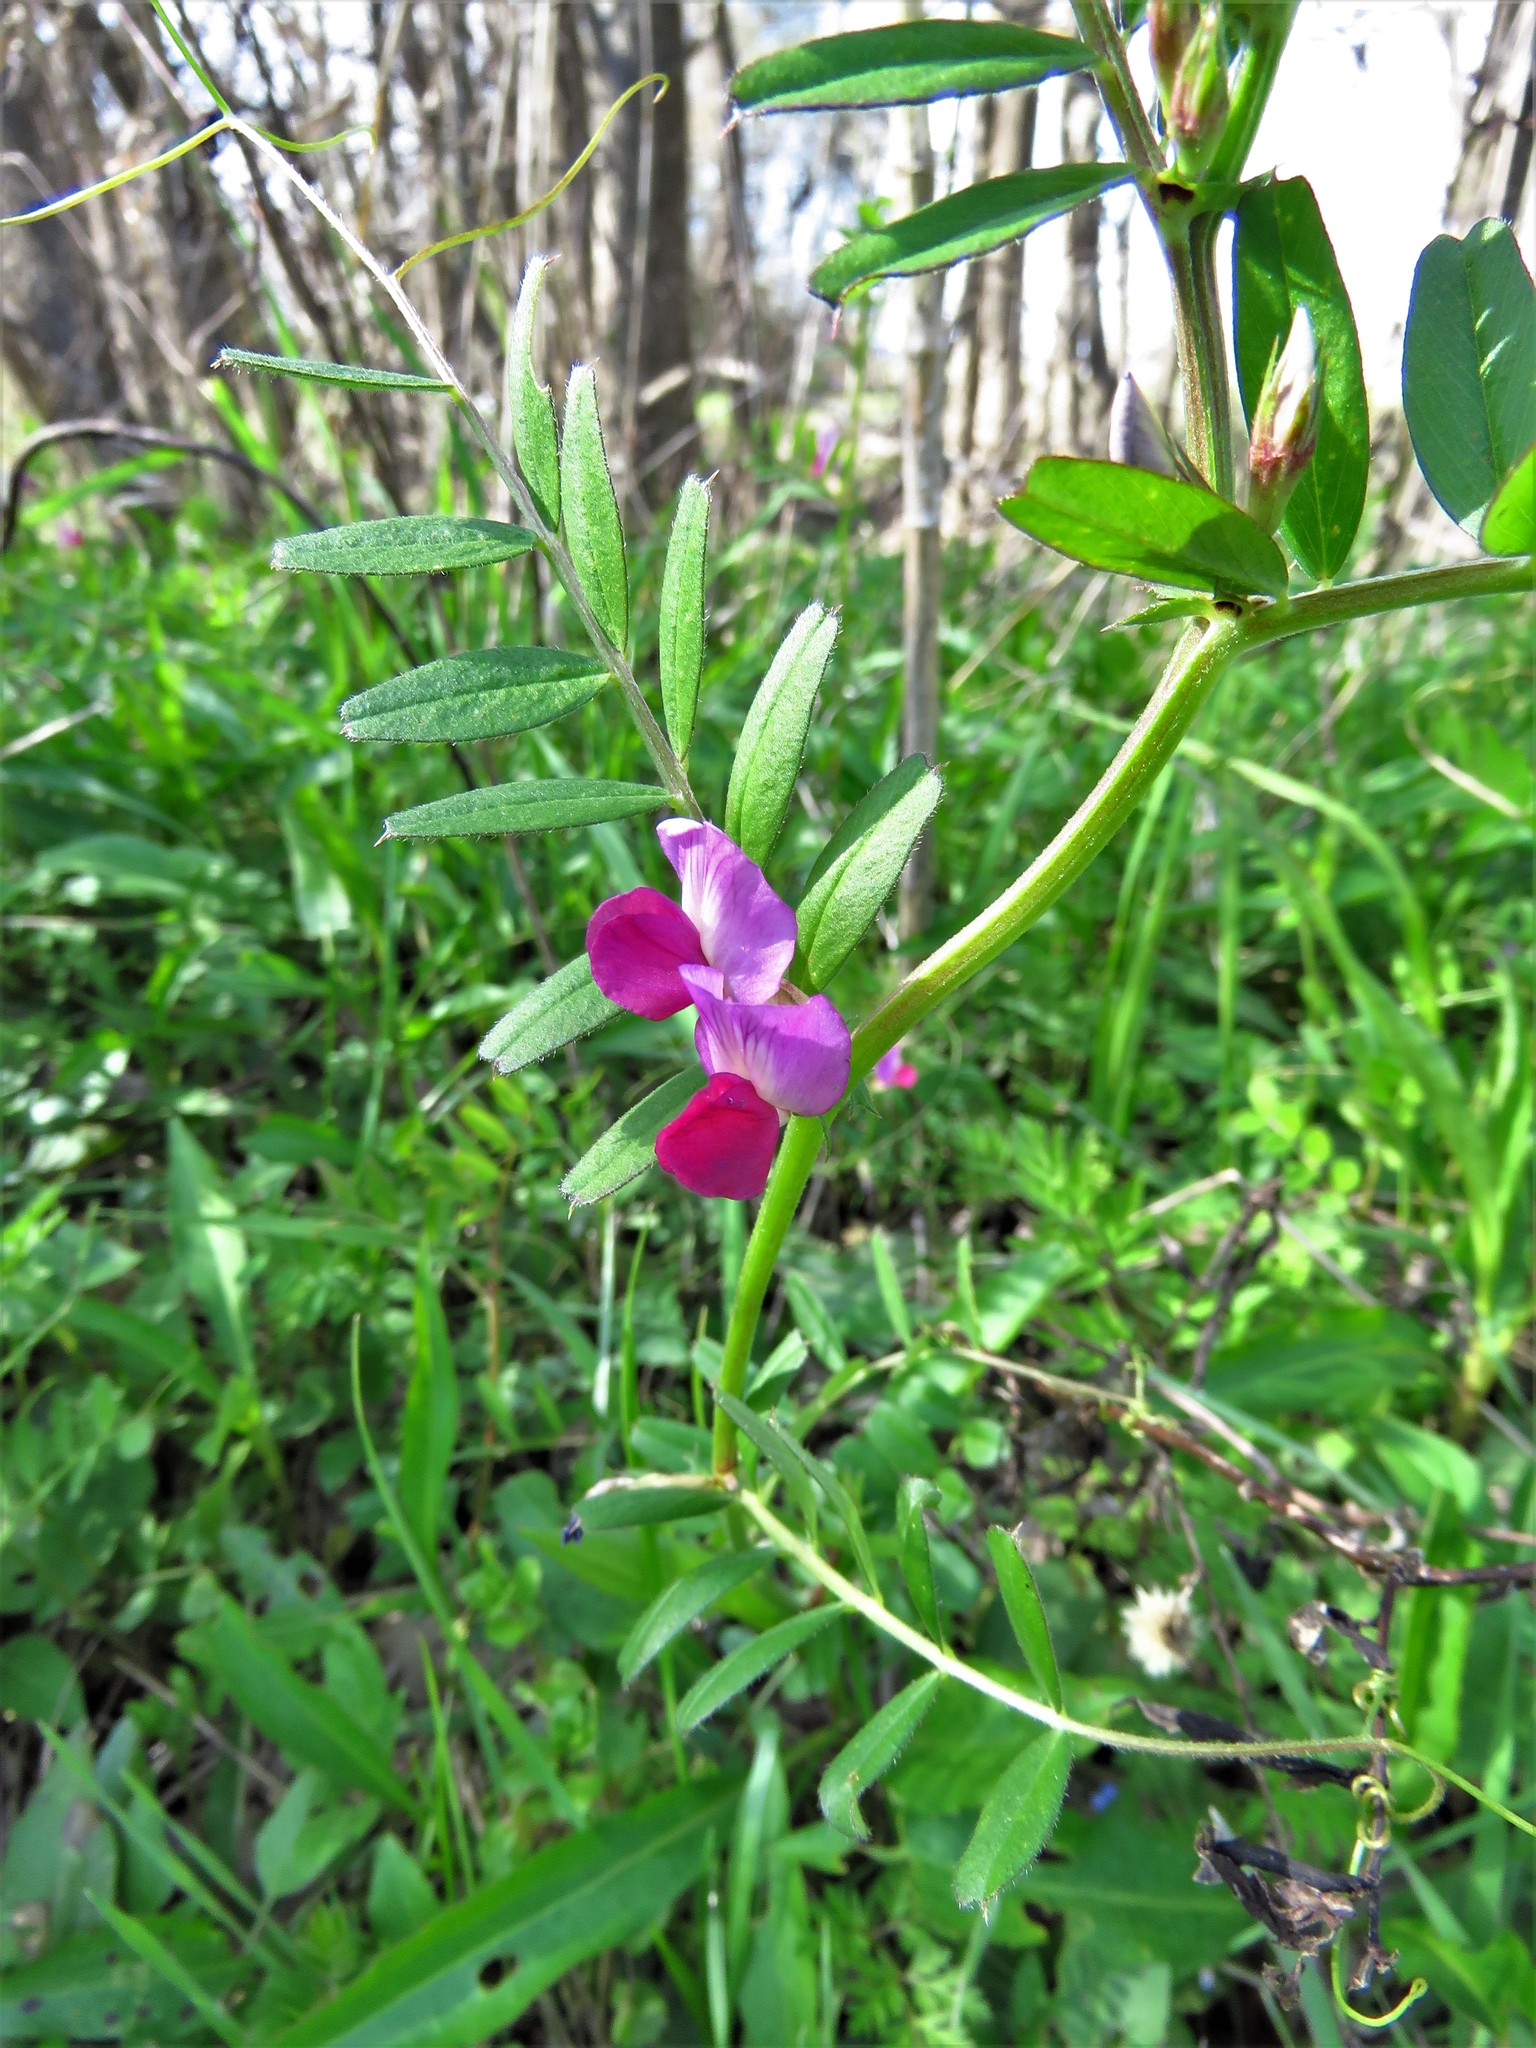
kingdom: Plantae
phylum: Tracheophyta
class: Magnoliopsida
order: Fabales
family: Fabaceae
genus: Vicia
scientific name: Vicia sativa
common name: Garden vetch
